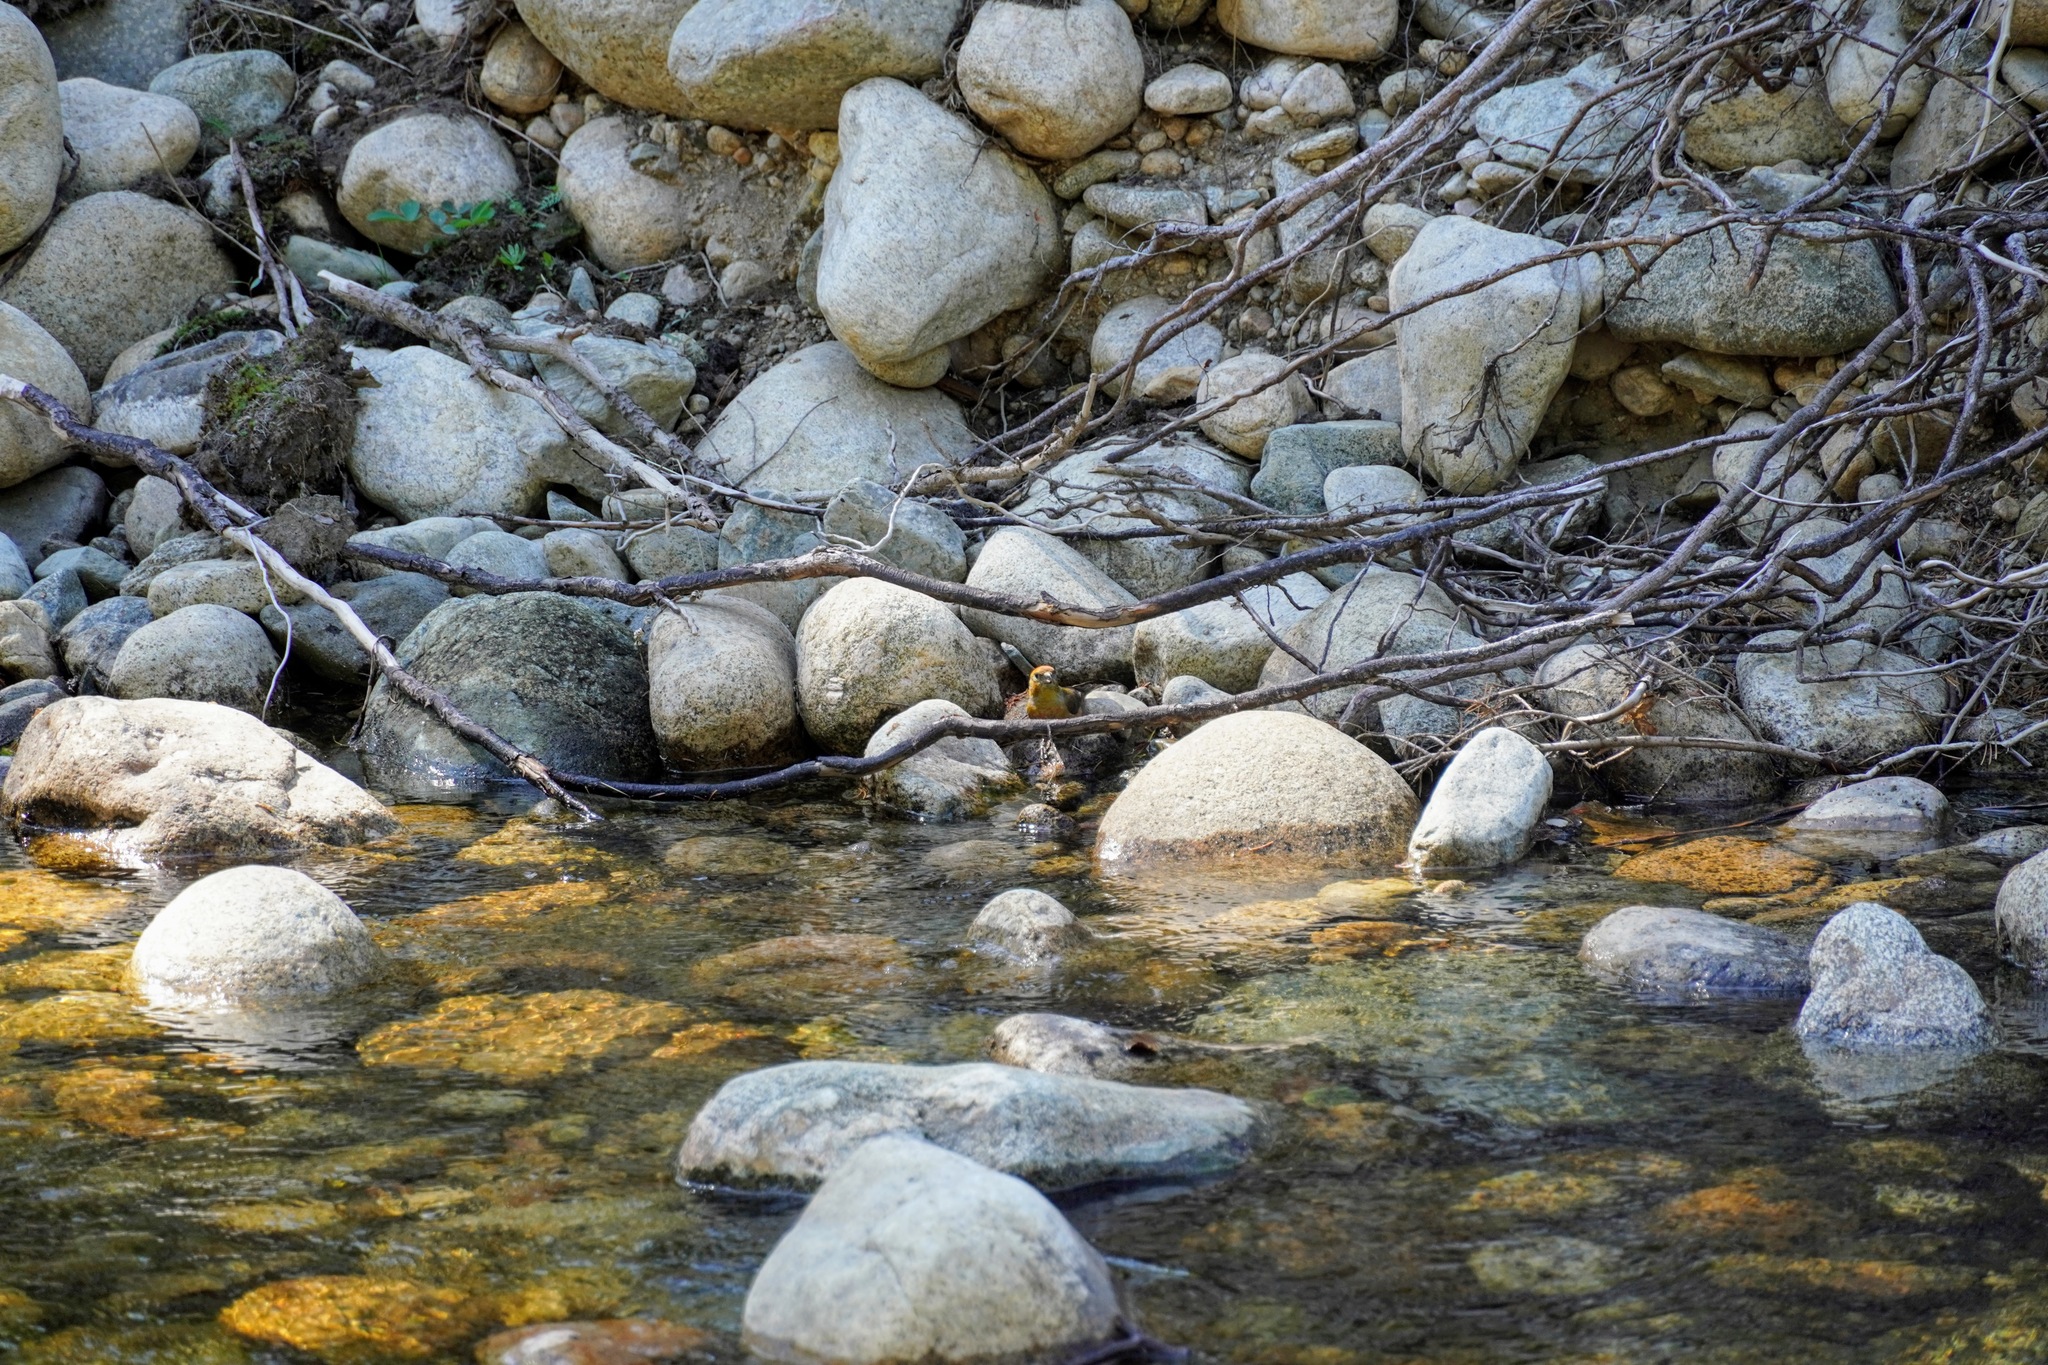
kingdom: Animalia
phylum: Chordata
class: Aves
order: Passeriformes
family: Fringillidae
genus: Loxia
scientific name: Loxia curvirostra
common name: Red crossbill
